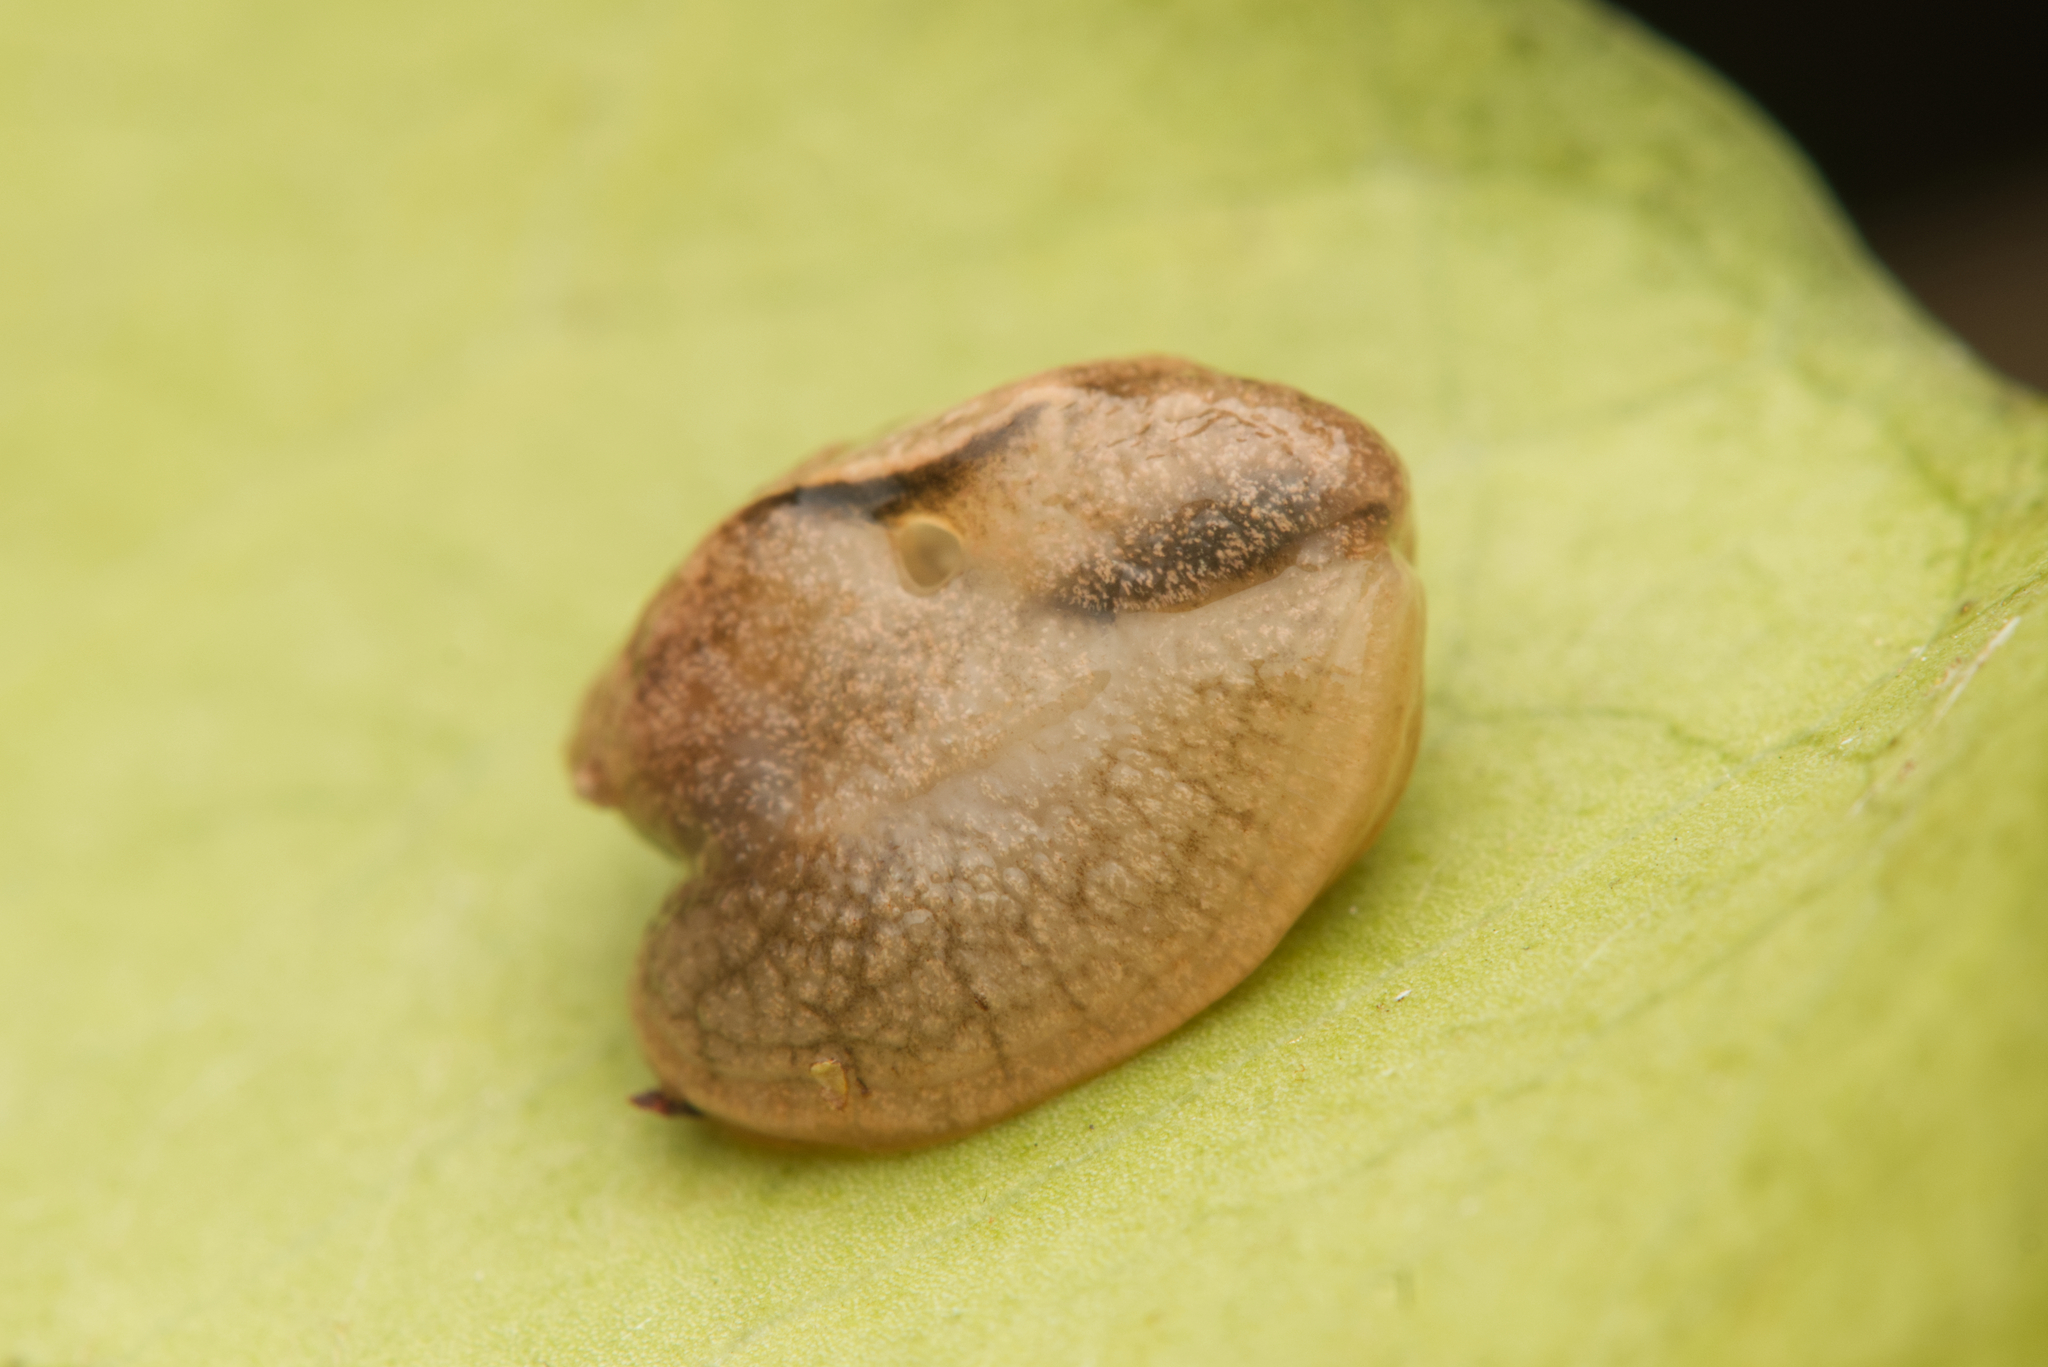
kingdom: Animalia
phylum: Mollusca
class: Gastropoda
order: Stylommatophora
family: Helicarionidae
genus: Ubiquitarion
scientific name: Ubiquitarion iridis
